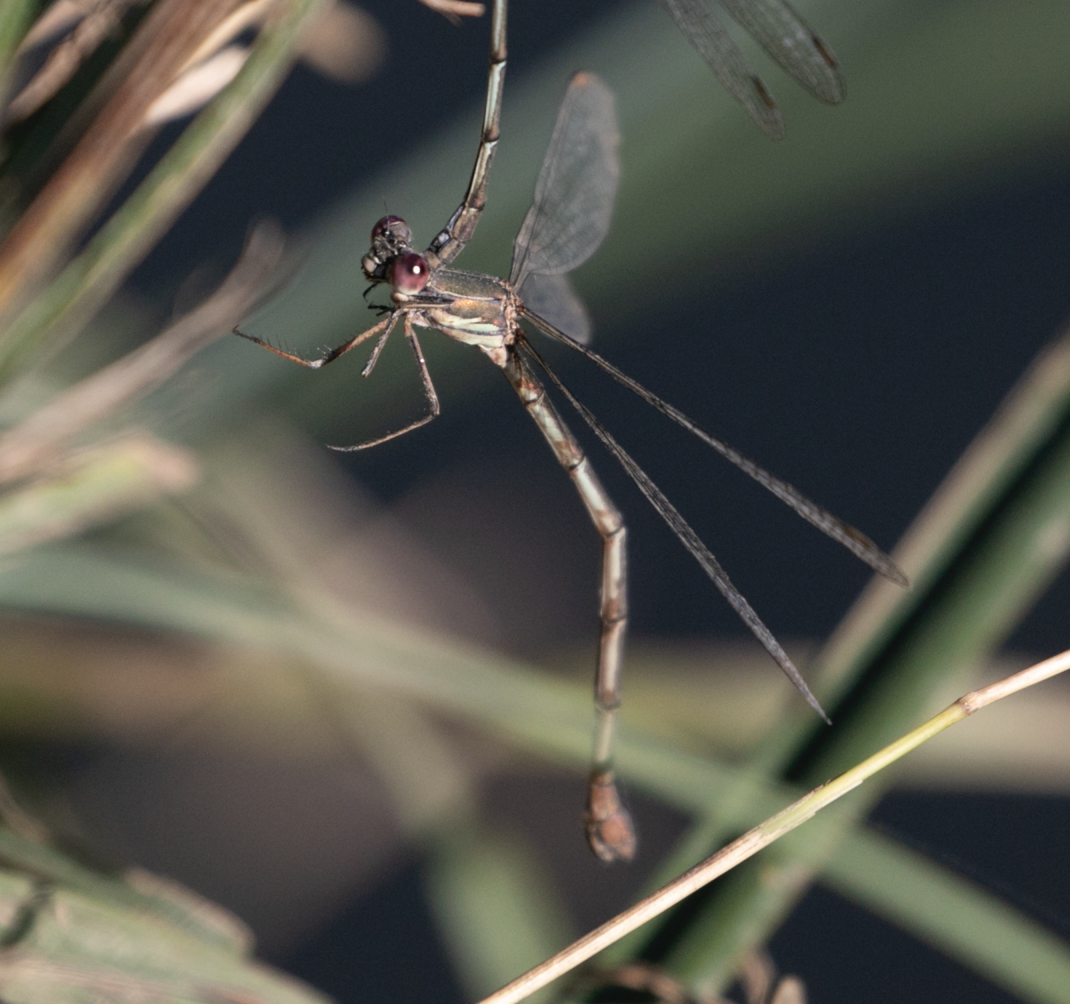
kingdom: Animalia
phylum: Arthropoda
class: Insecta
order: Odonata
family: Lestidae
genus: Chalcolestes
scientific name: Chalcolestes viridis
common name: Green emerald damselfly
